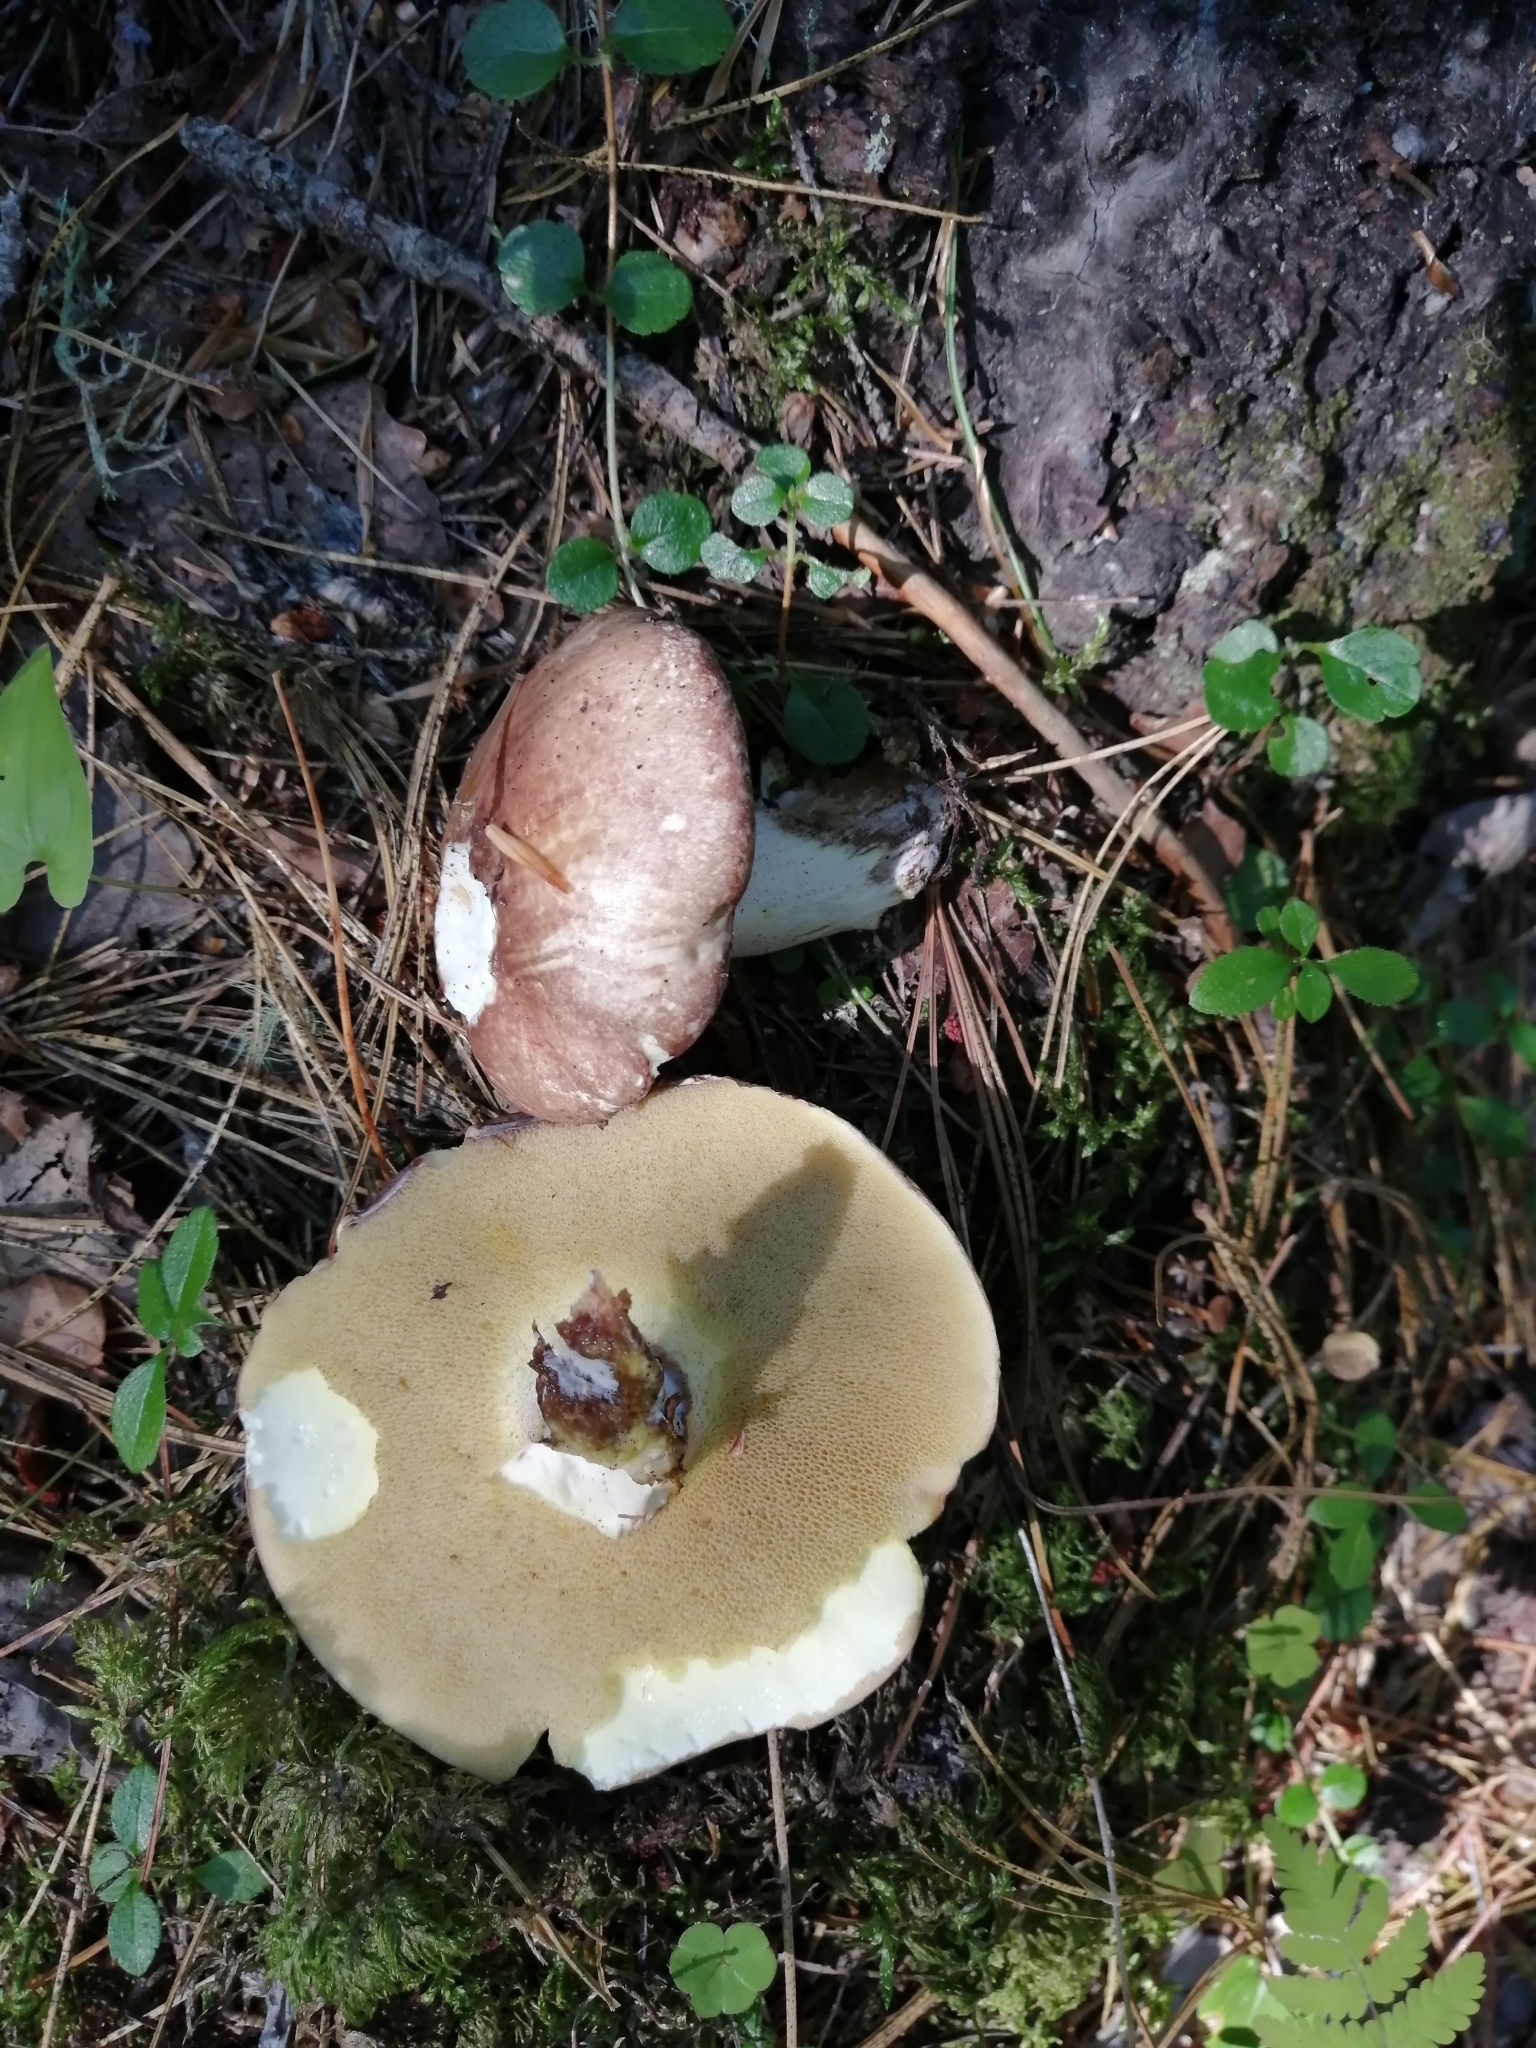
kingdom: Fungi
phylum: Basidiomycota
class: Agaricomycetes
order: Boletales
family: Suillaceae
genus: Suillus
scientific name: Suillus placidus
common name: Slippery white bolete
